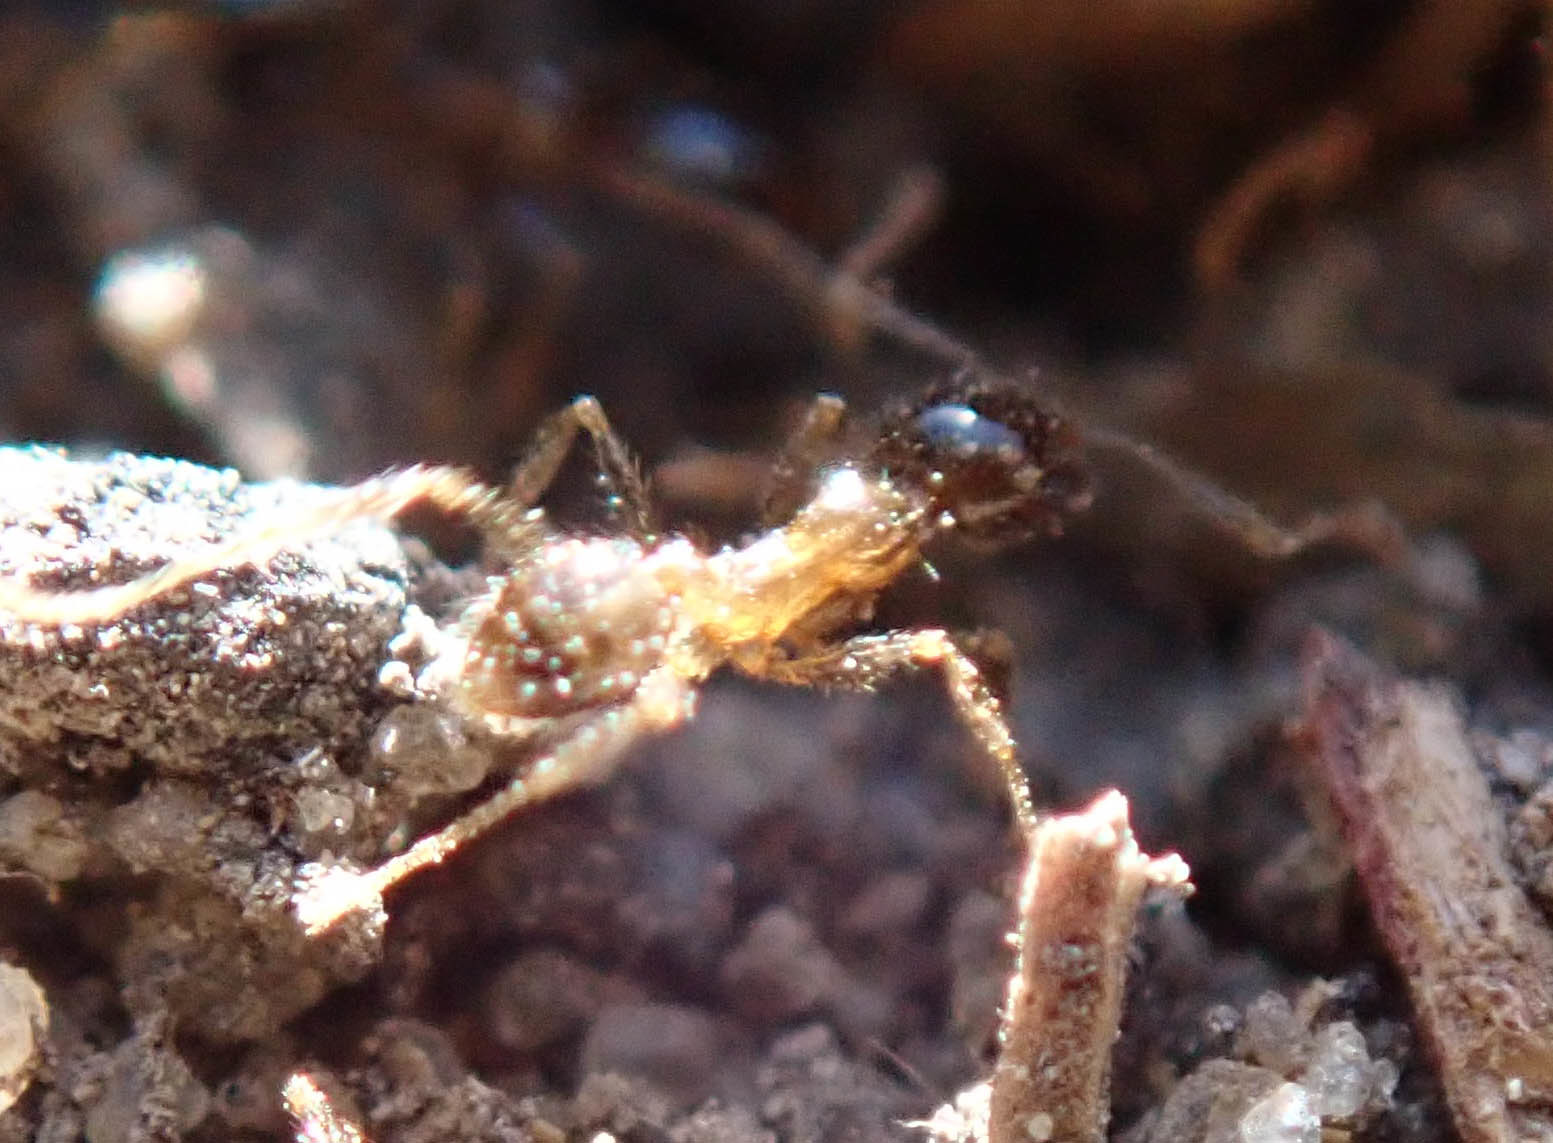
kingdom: Animalia
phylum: Arthropoda
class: Insecta
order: Hymenoptera
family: Formicidae
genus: Pheidole
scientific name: Pheidole megacephala
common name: Bigheaded ant
